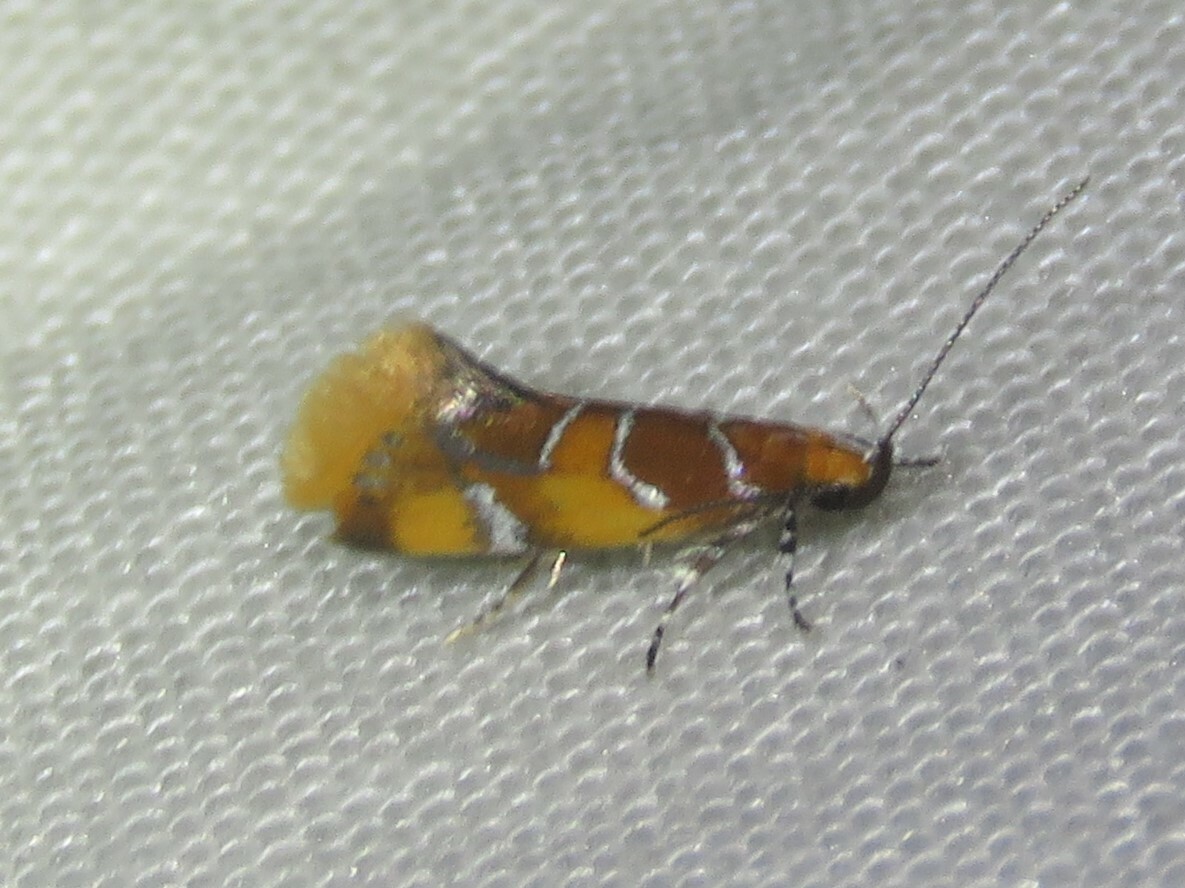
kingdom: Animalia
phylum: Arthropoda
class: Insecta
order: Lepidoptera
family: Oecophoridae
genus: Callima
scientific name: Callima argenticinctella
